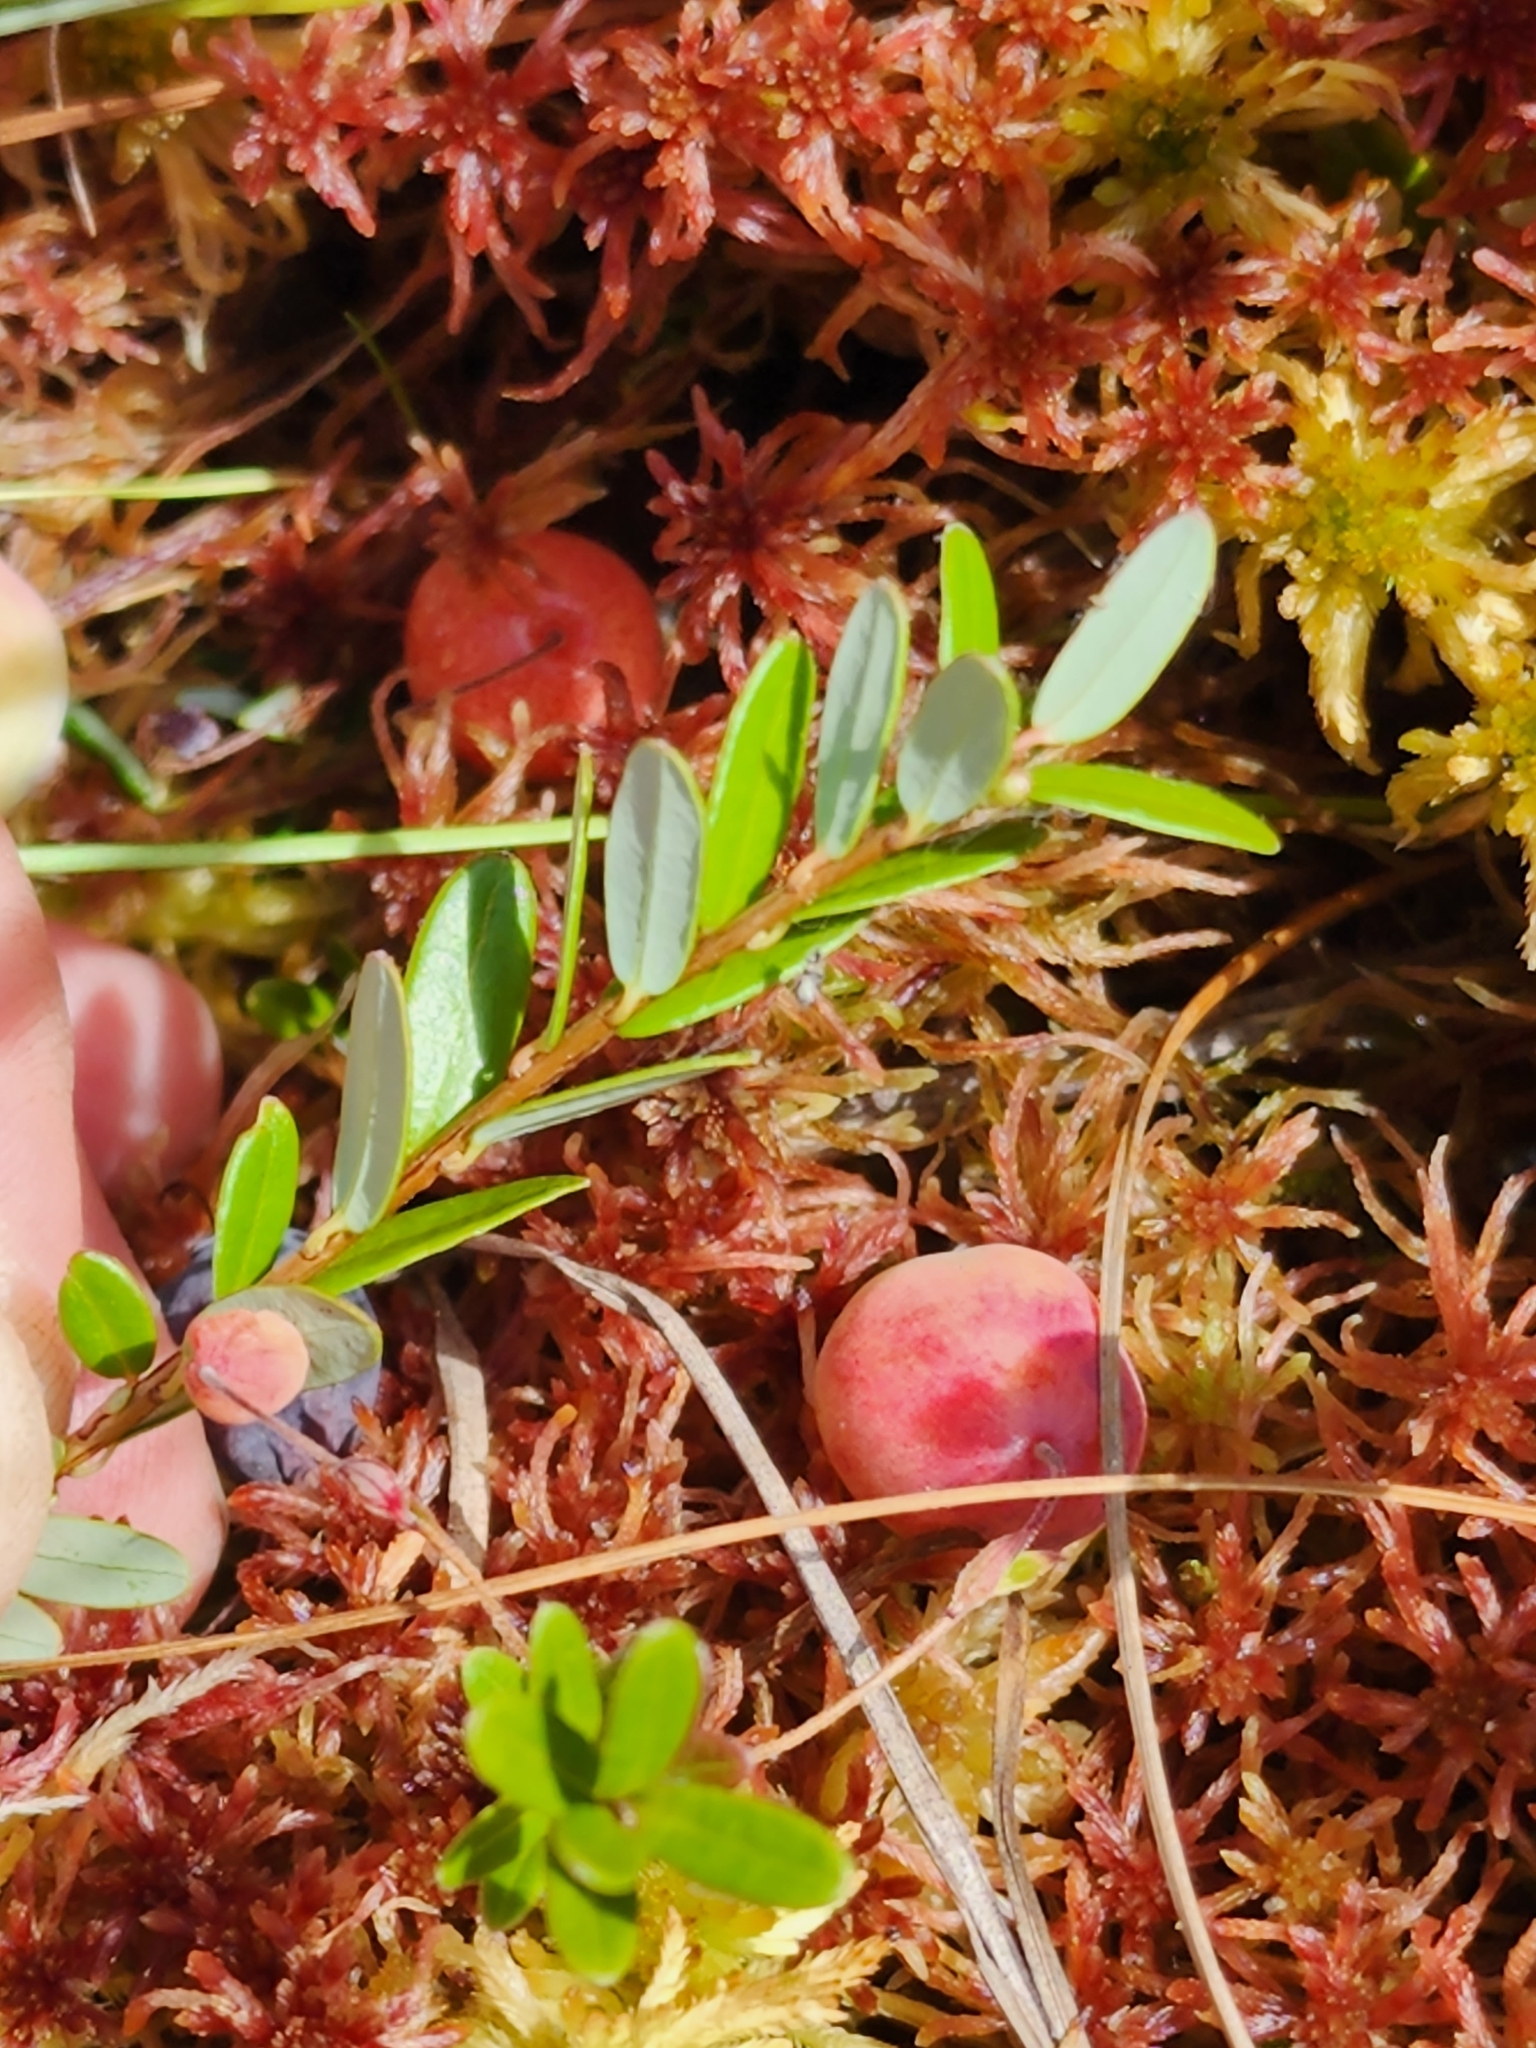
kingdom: Plantae
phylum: Tracheophyta
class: Magnoliopsida
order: Ericales
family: Ericaceae
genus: Vaccinium
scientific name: Vaccinium macrocarpon
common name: American cranberry
